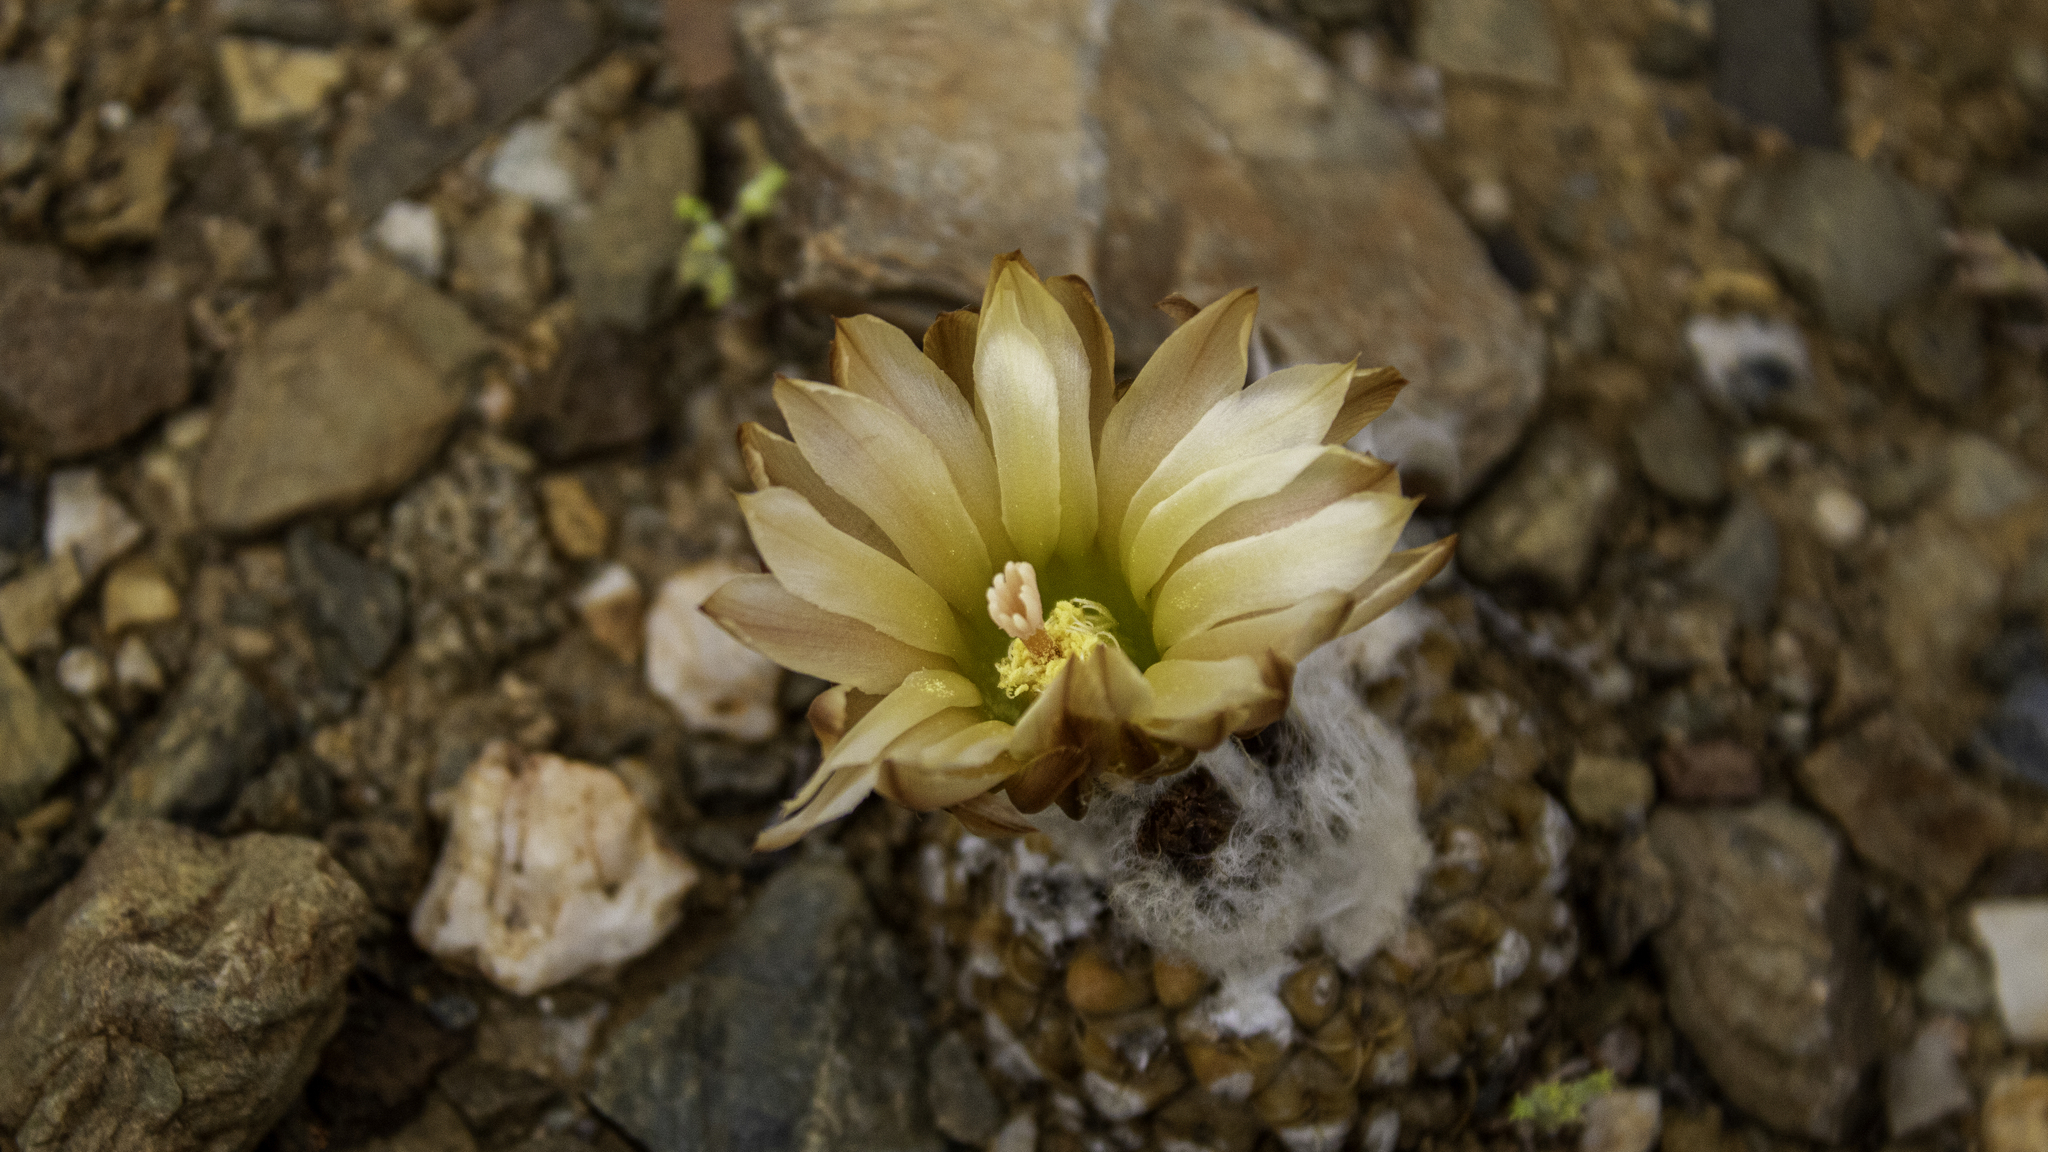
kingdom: Plantae
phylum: Tracheophyta
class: Magnoliopsida
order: Caryophyllales
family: Cactaceae
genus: Eriosyce
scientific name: Eriosyce glabrescens
